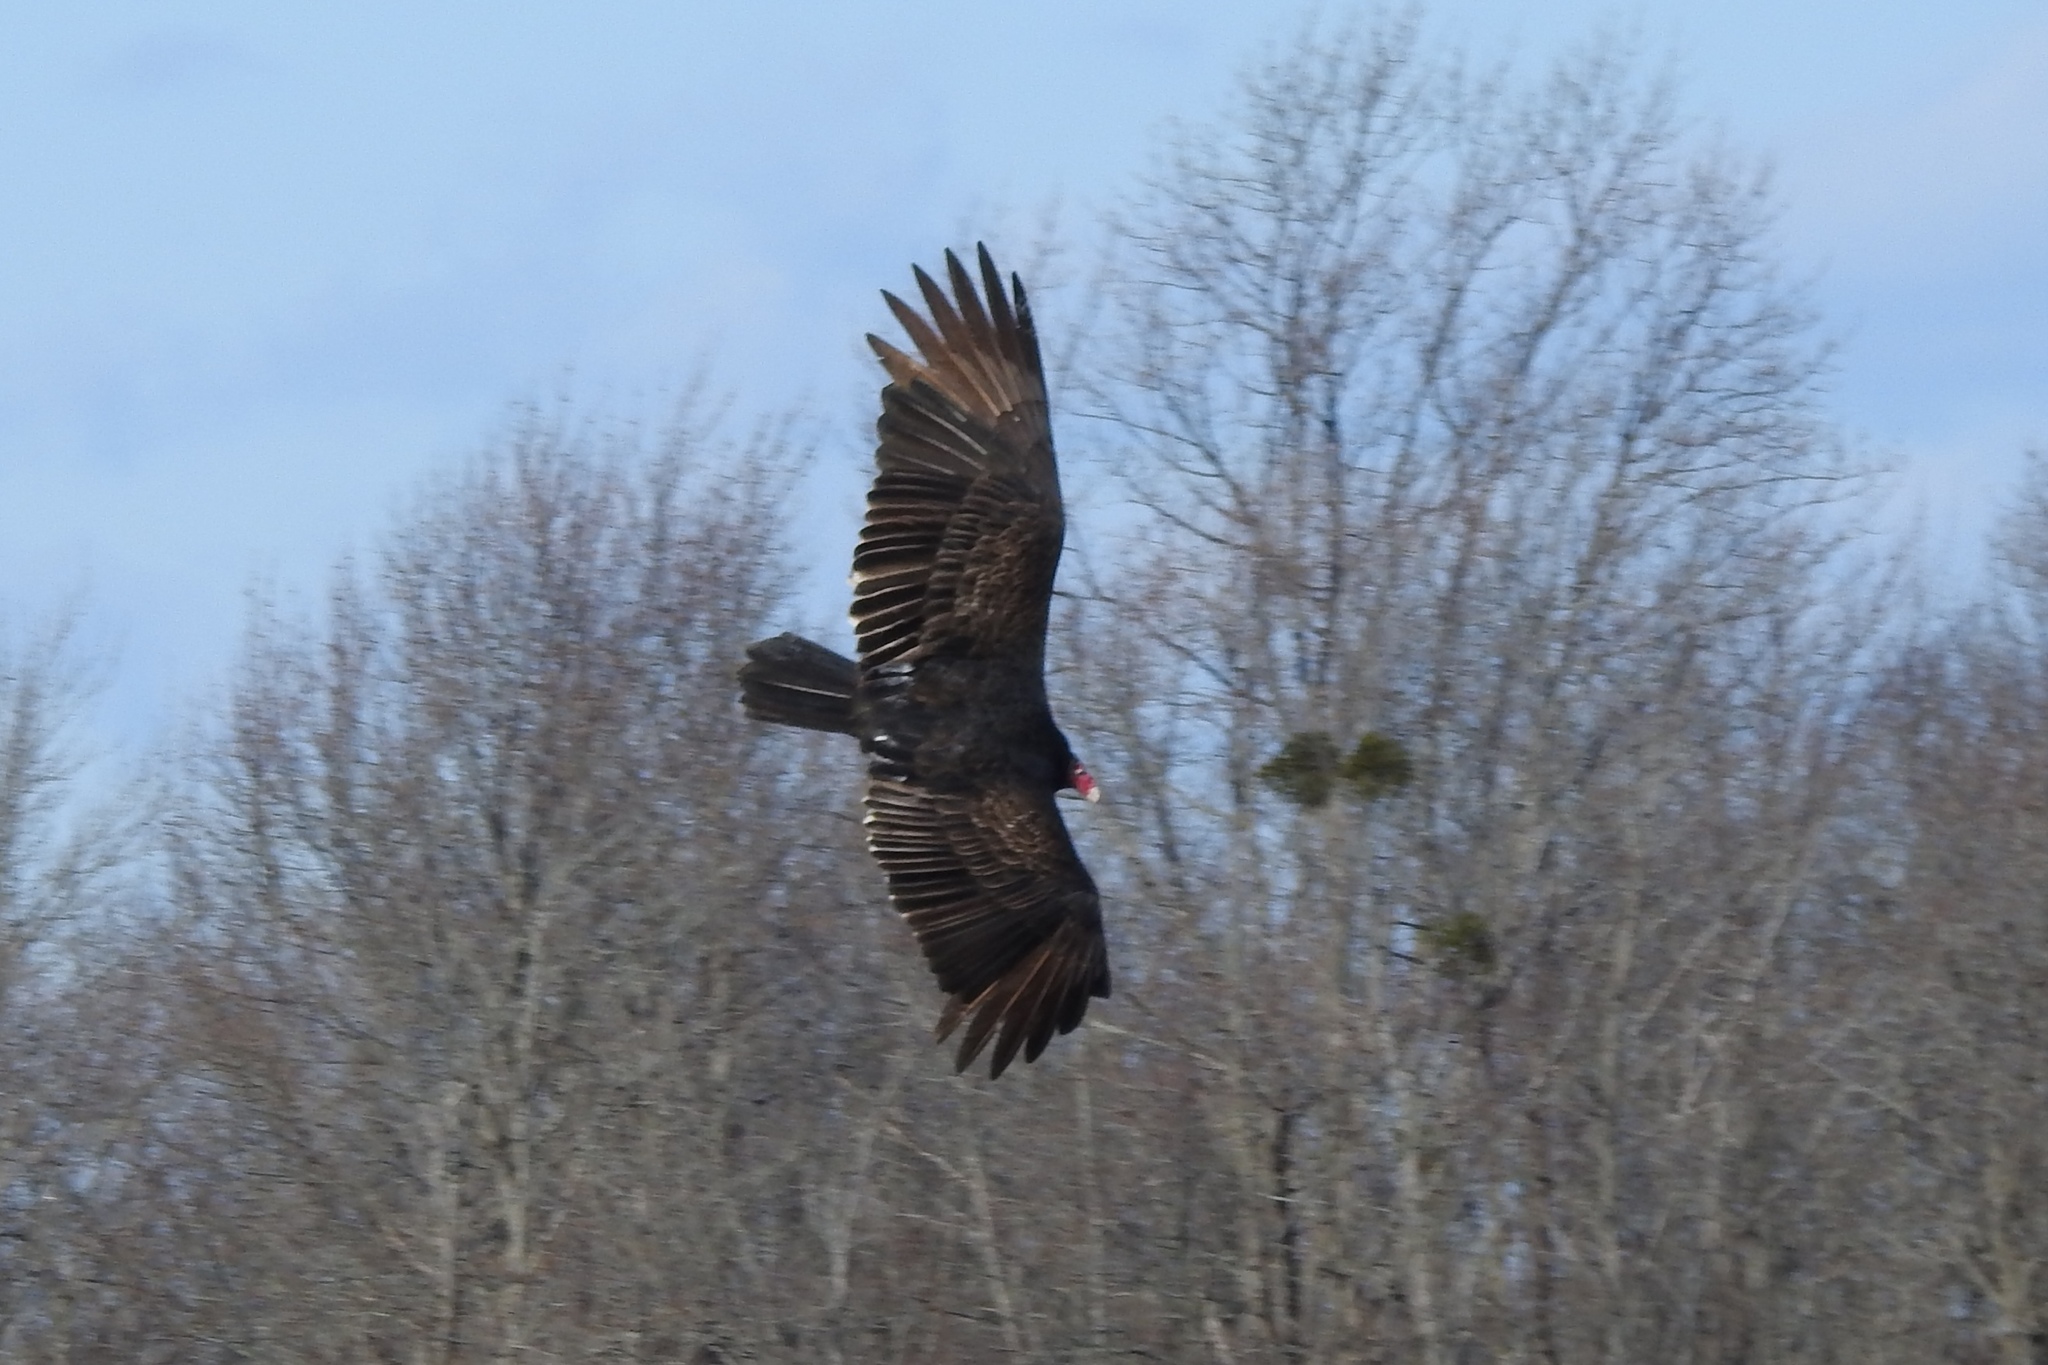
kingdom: Animalia
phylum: Chordata
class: Aves
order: Accipitriformes
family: Cathartidae
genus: Cathartes
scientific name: Cathartes aura
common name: Turkey vulture
